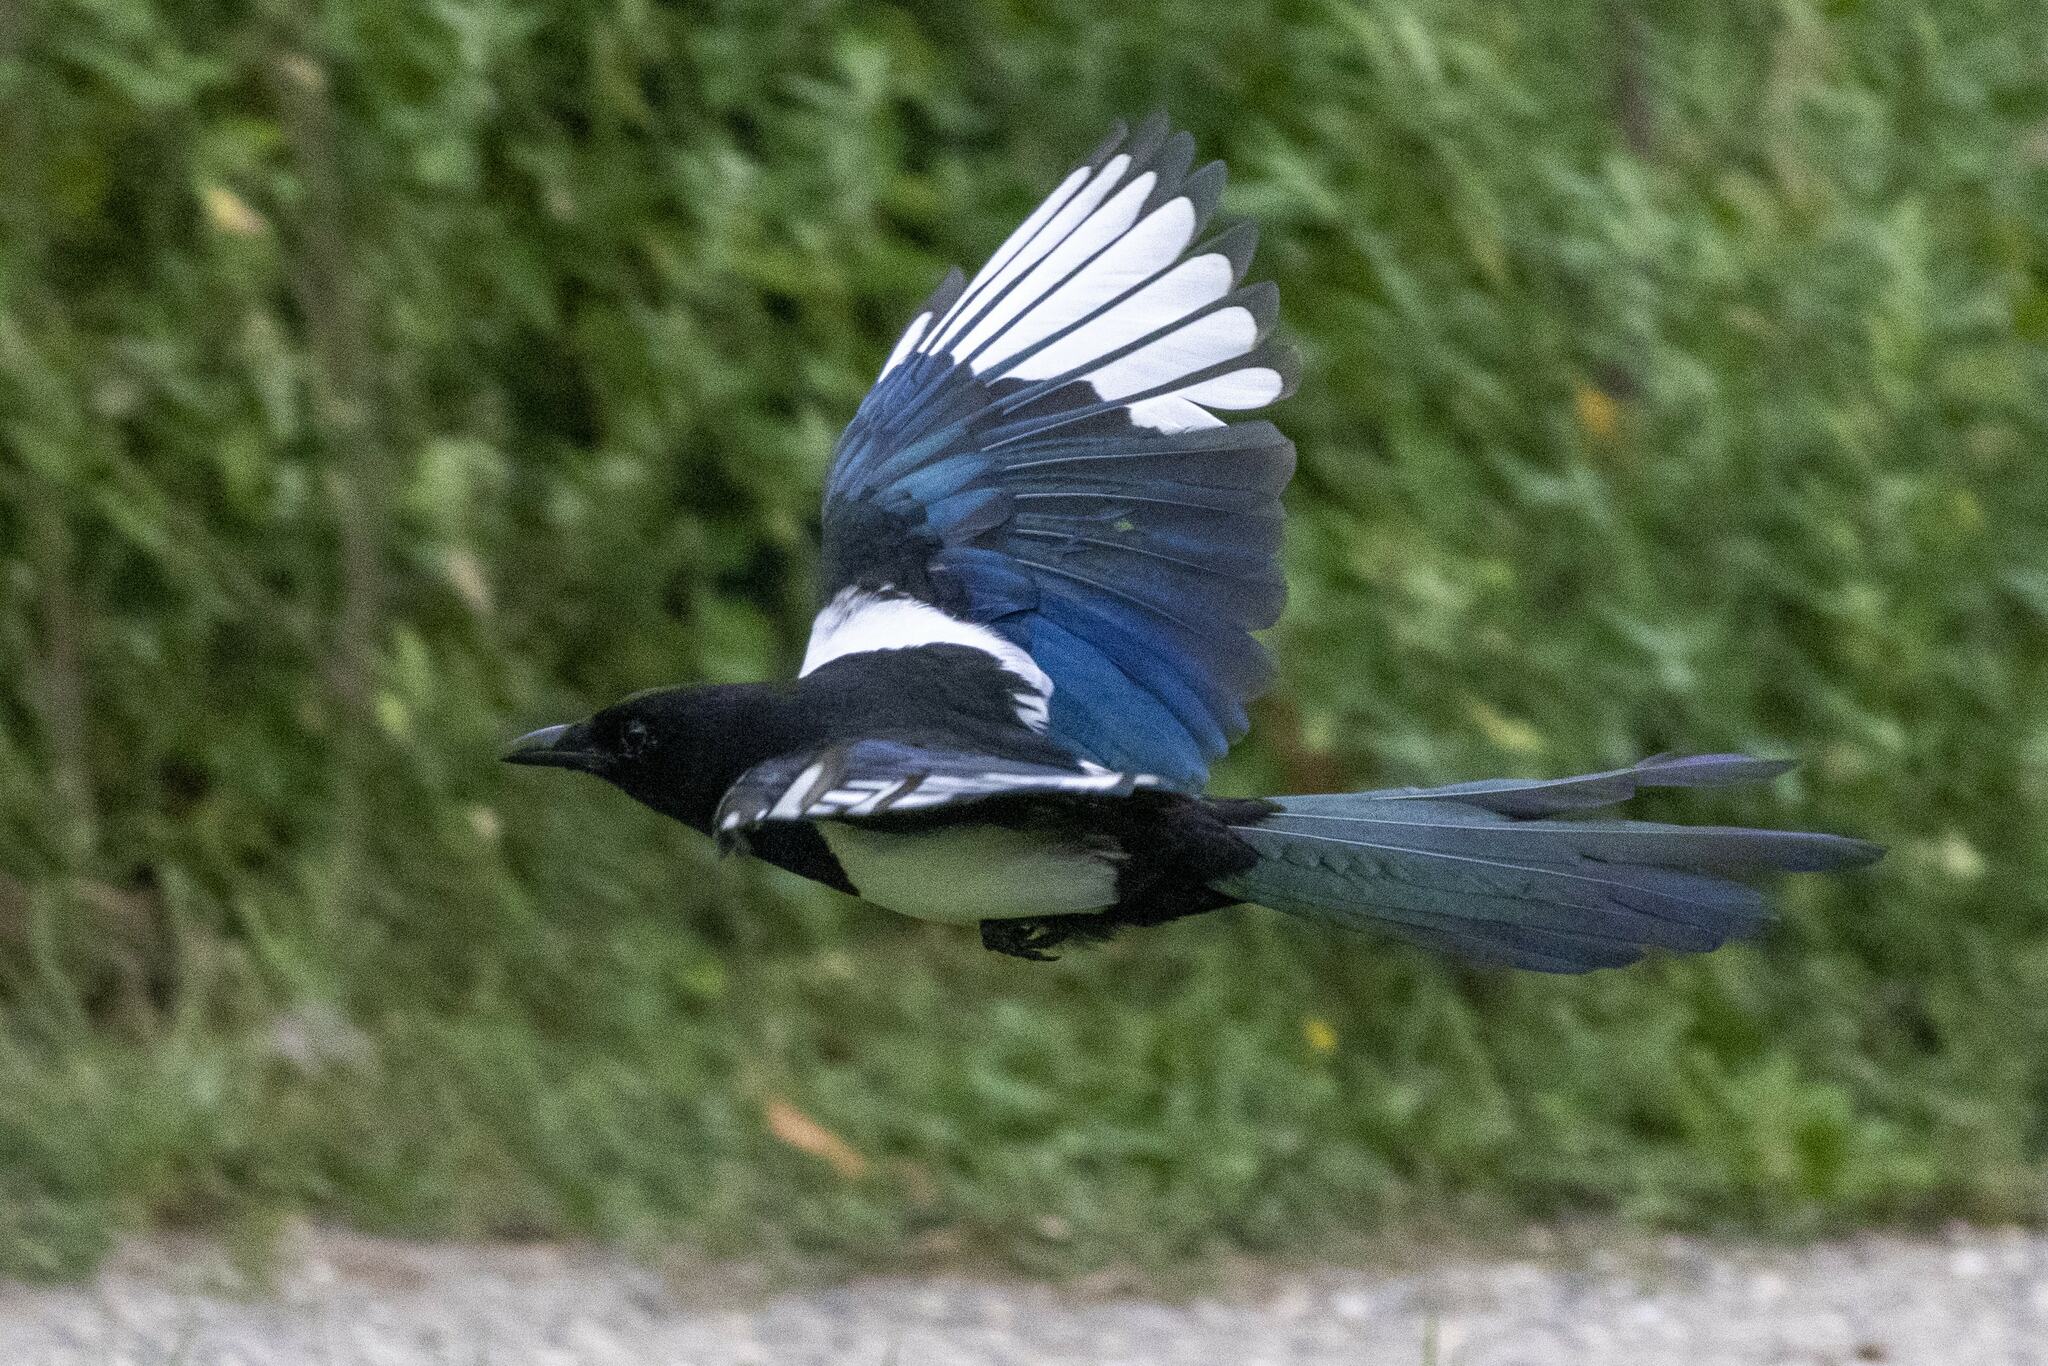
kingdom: Animalia
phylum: Chordata
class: Aves
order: Passeriformes
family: Corvidae
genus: Pica
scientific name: Pica pica
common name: Eurasian magpie
